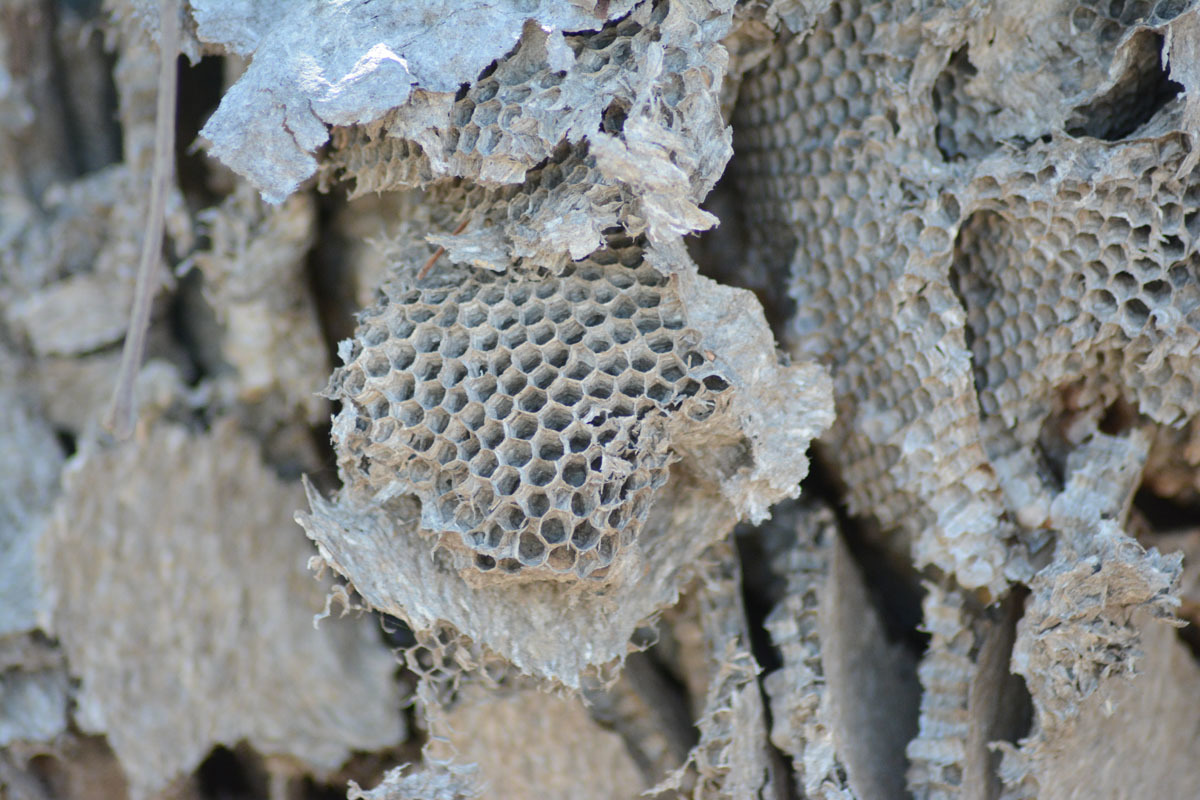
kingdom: Animalia
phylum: Arthropoda
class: Insecta
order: Hymenoptera
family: Vespidae
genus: Brachygastra
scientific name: Brachygastra mellifica
